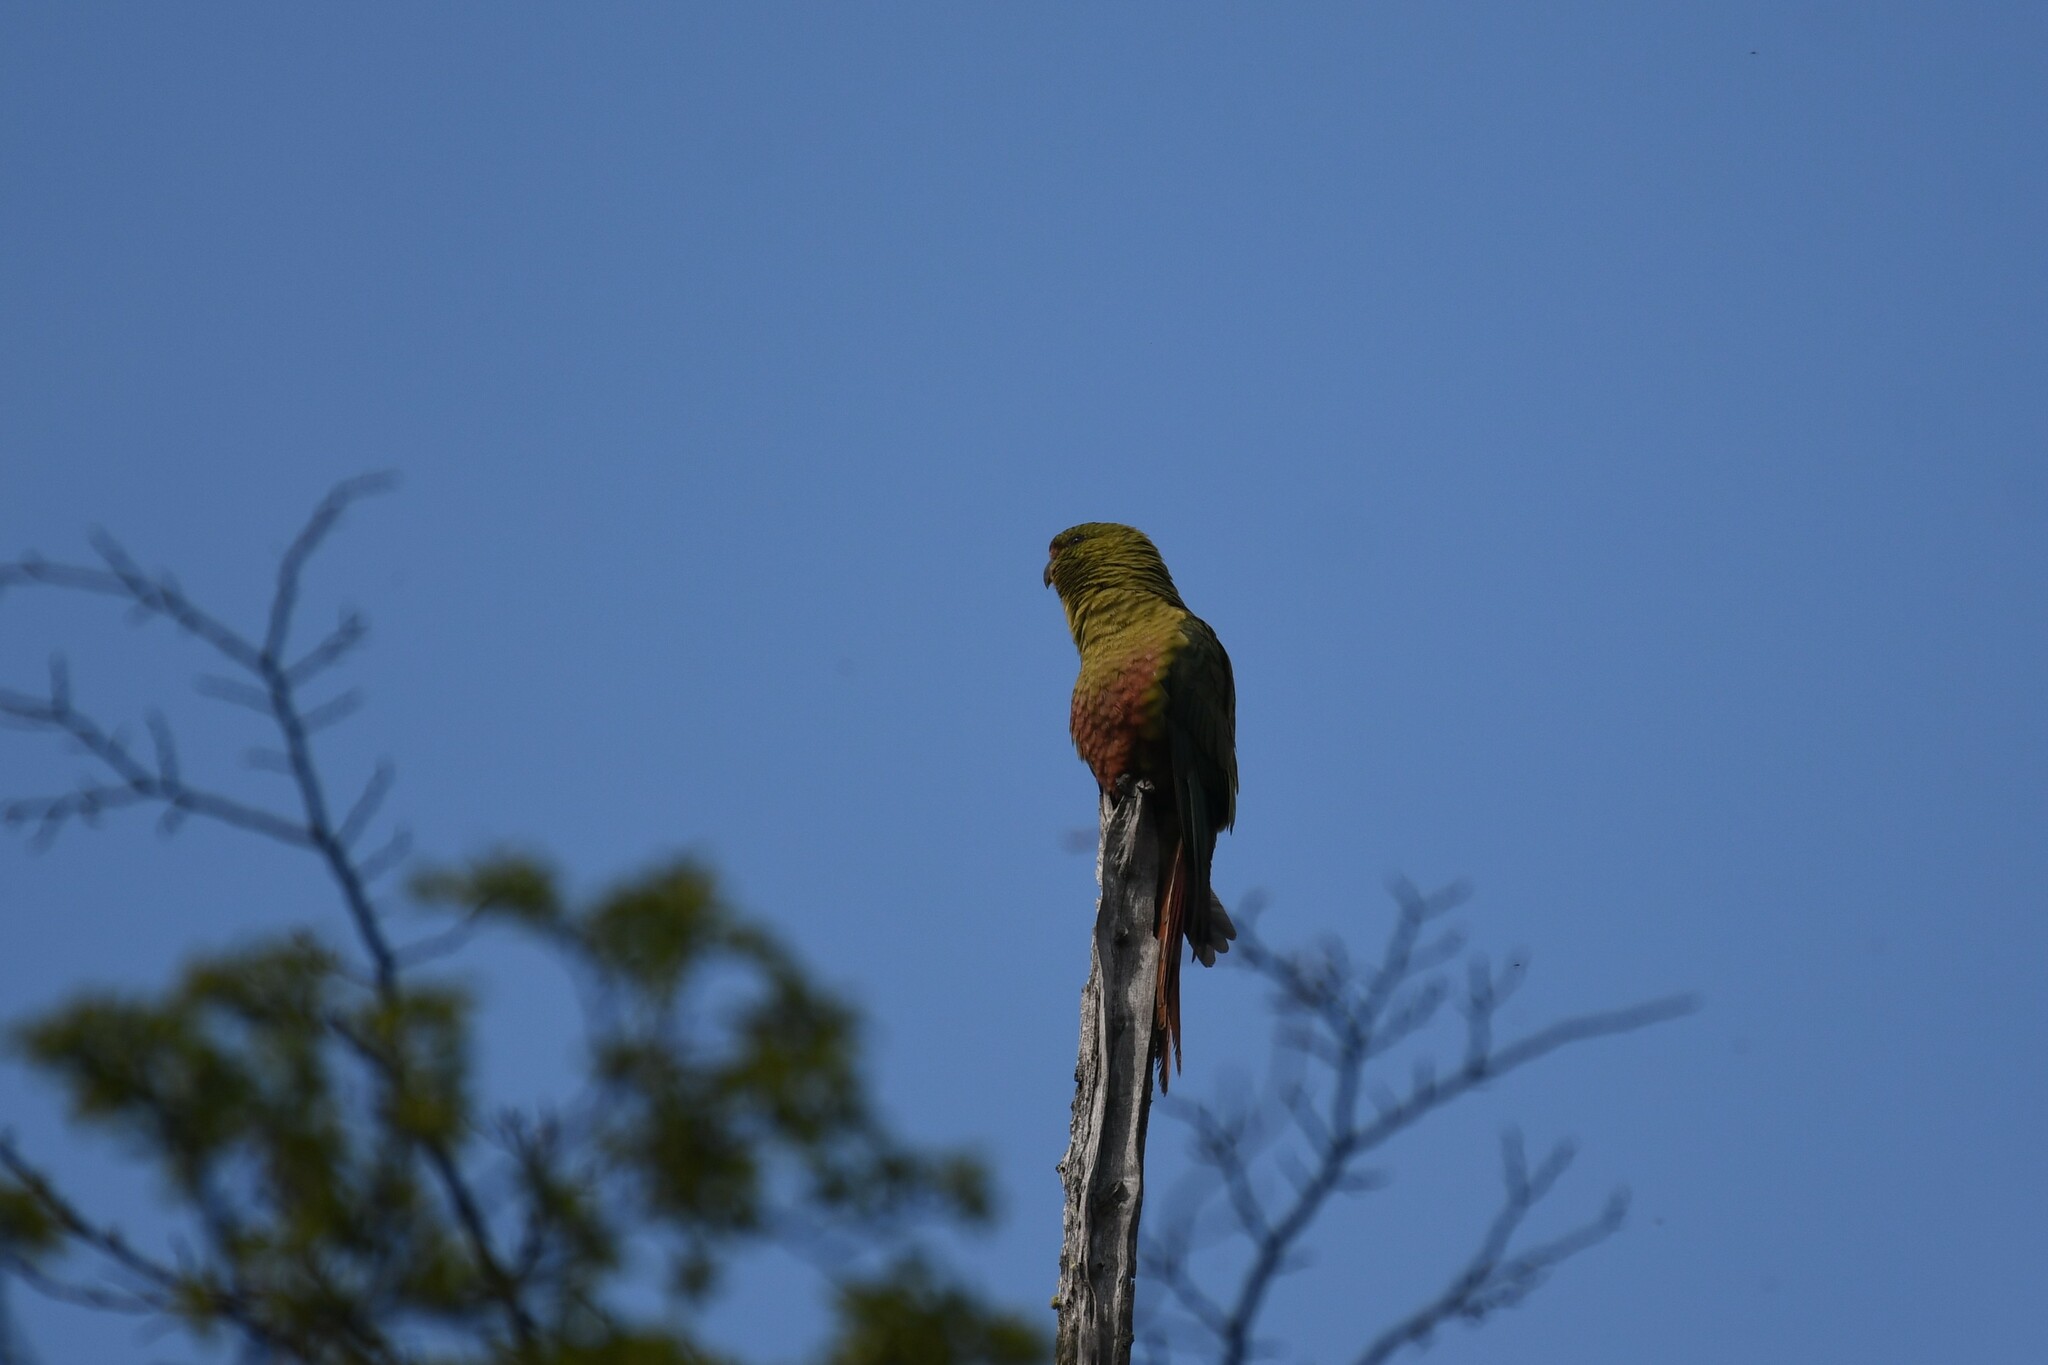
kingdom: Animalia
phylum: Chordata
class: Aves
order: Psittaciformes
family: Psittacidae
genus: Enicognathus
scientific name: Enicognathus ferrugineus
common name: Austral parakeet
